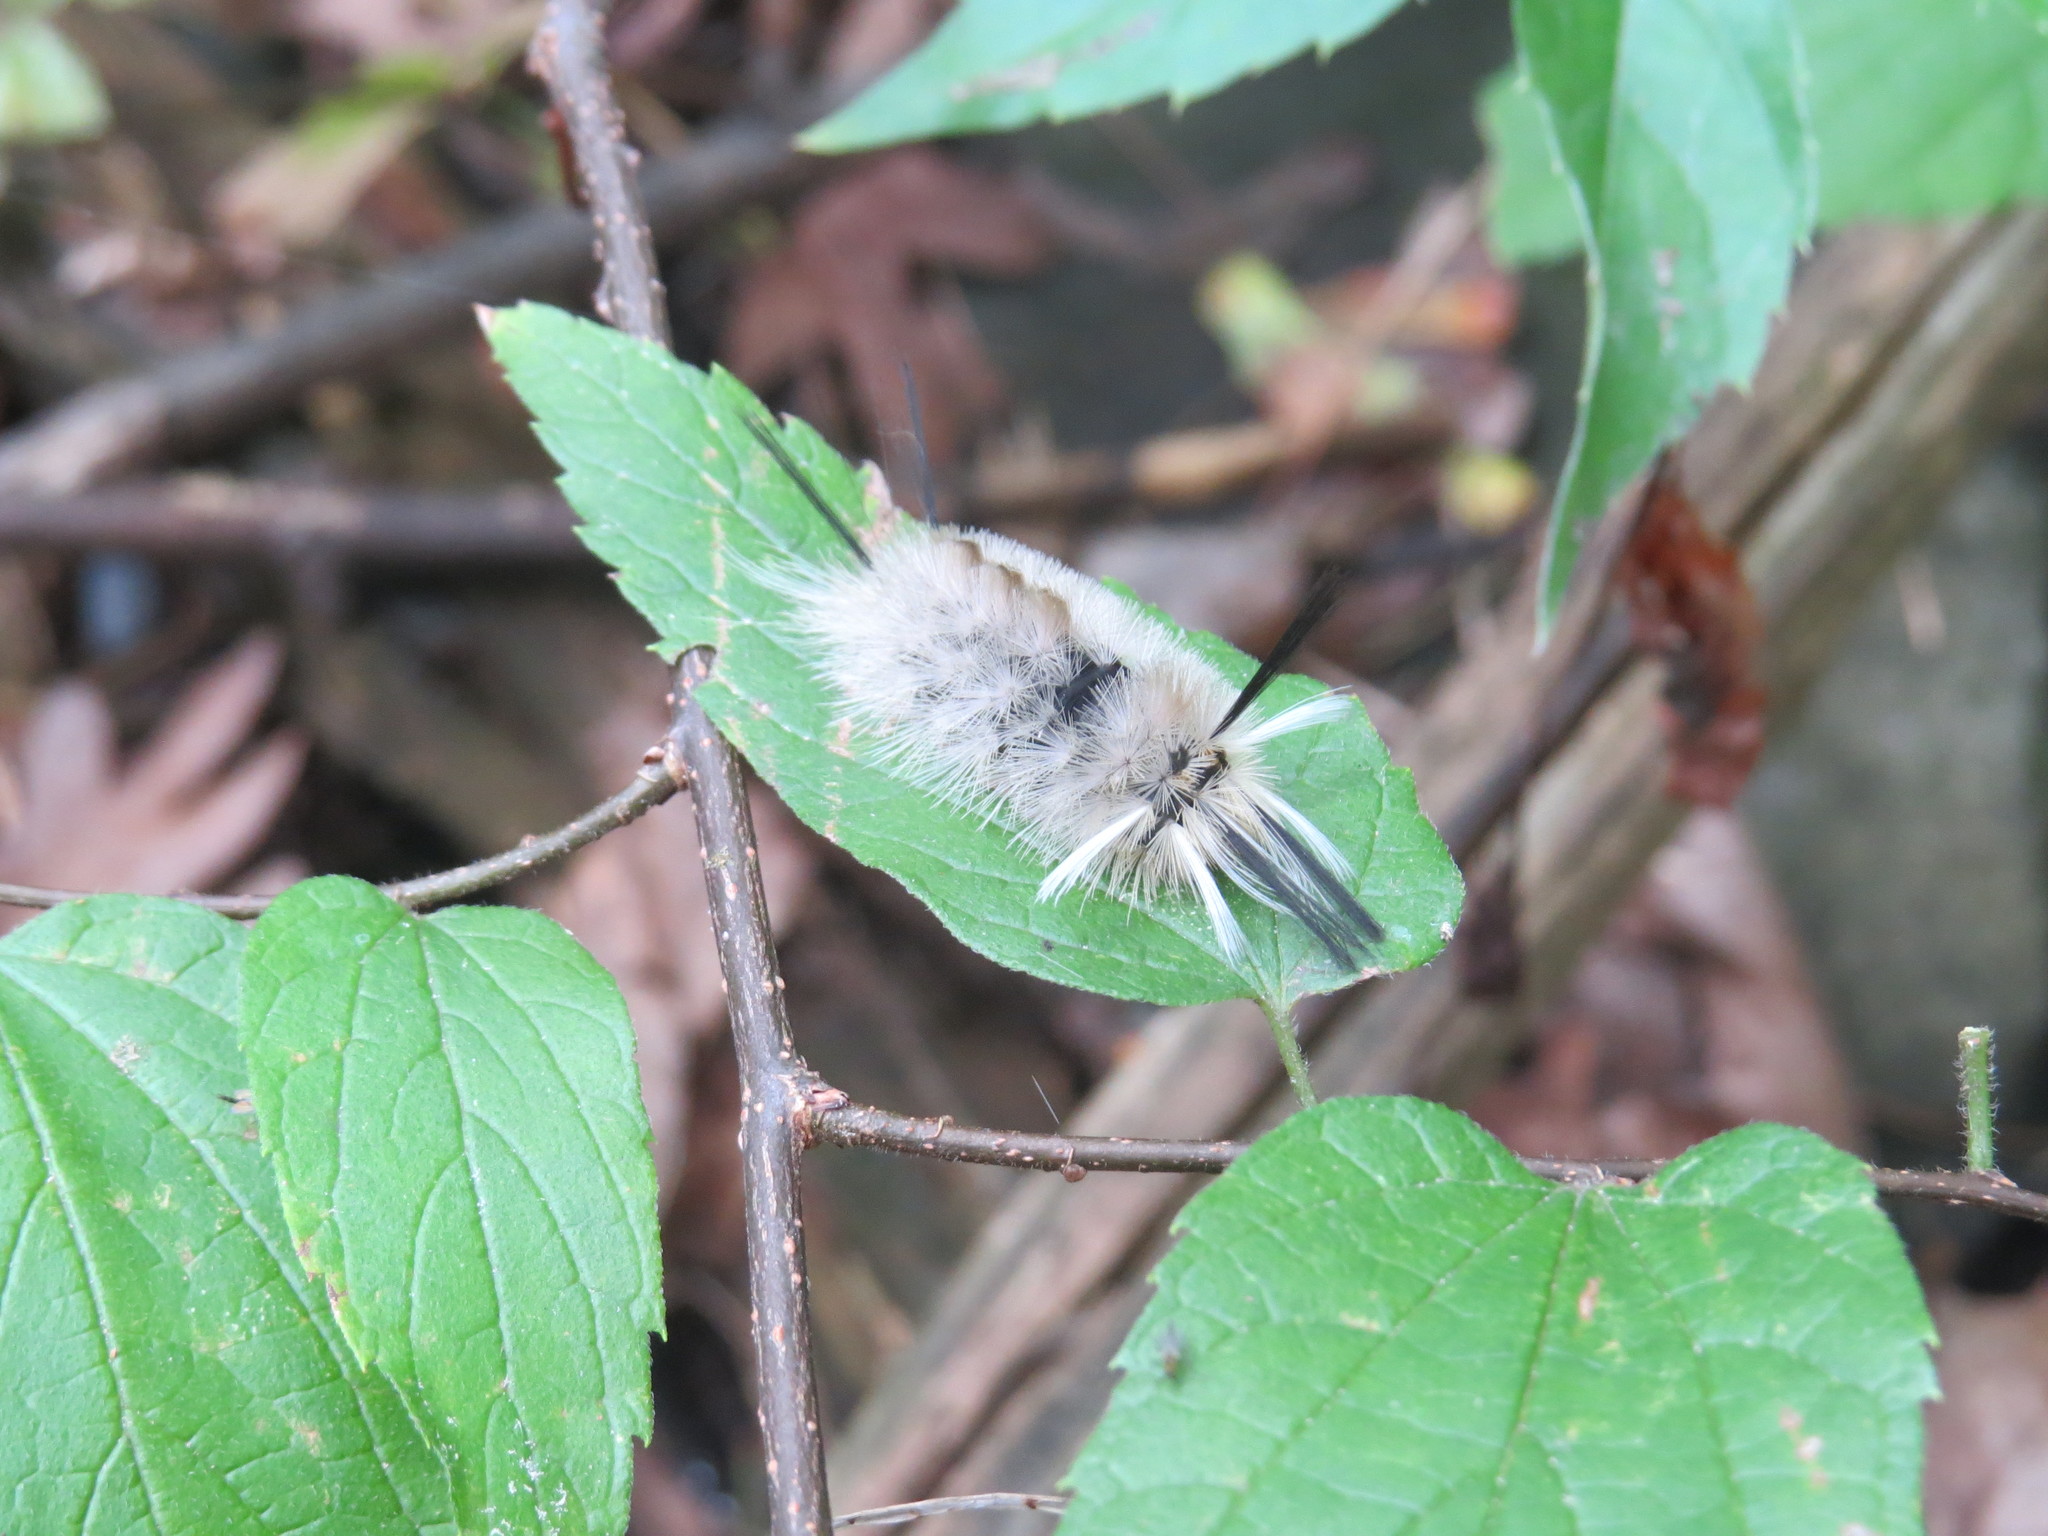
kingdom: Animalia
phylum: Arthropoda
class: Insecta
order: Lepidoptera
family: Erebidae
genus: Halysidota
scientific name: Halysidota tessellaris
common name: Banded tussock moth
